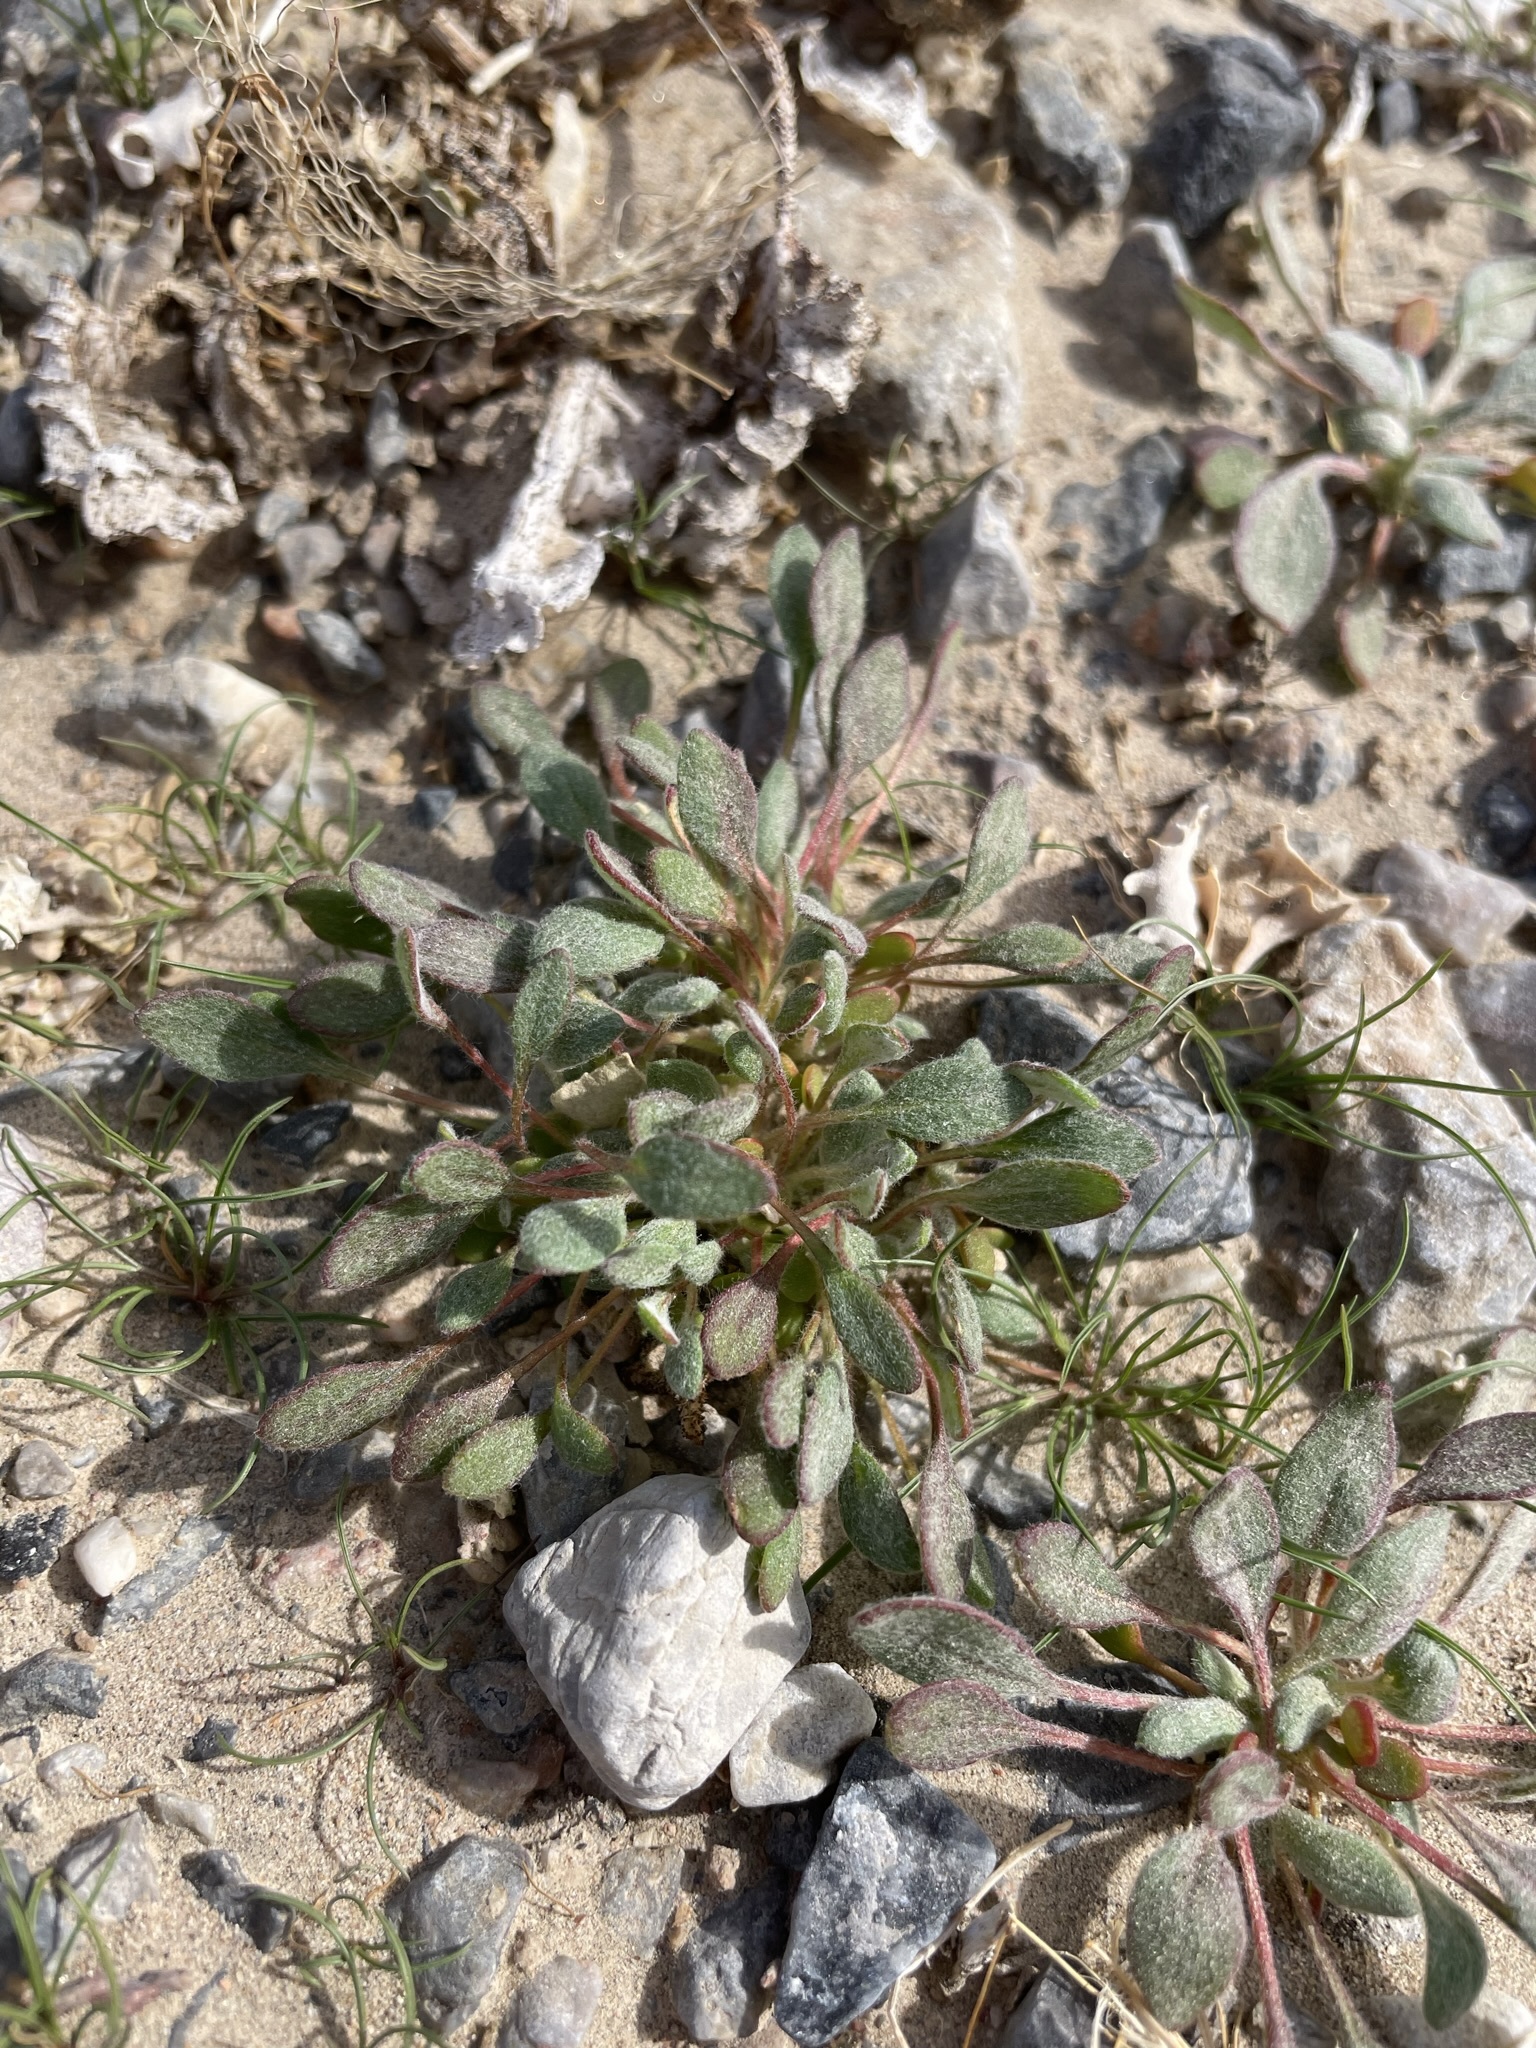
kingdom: Plantae
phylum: Tracheophyta
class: Magnoliopsida
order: Caryophyllales
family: Polygonaceae
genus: Chorizanthe
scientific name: Chorizanthe rigida
